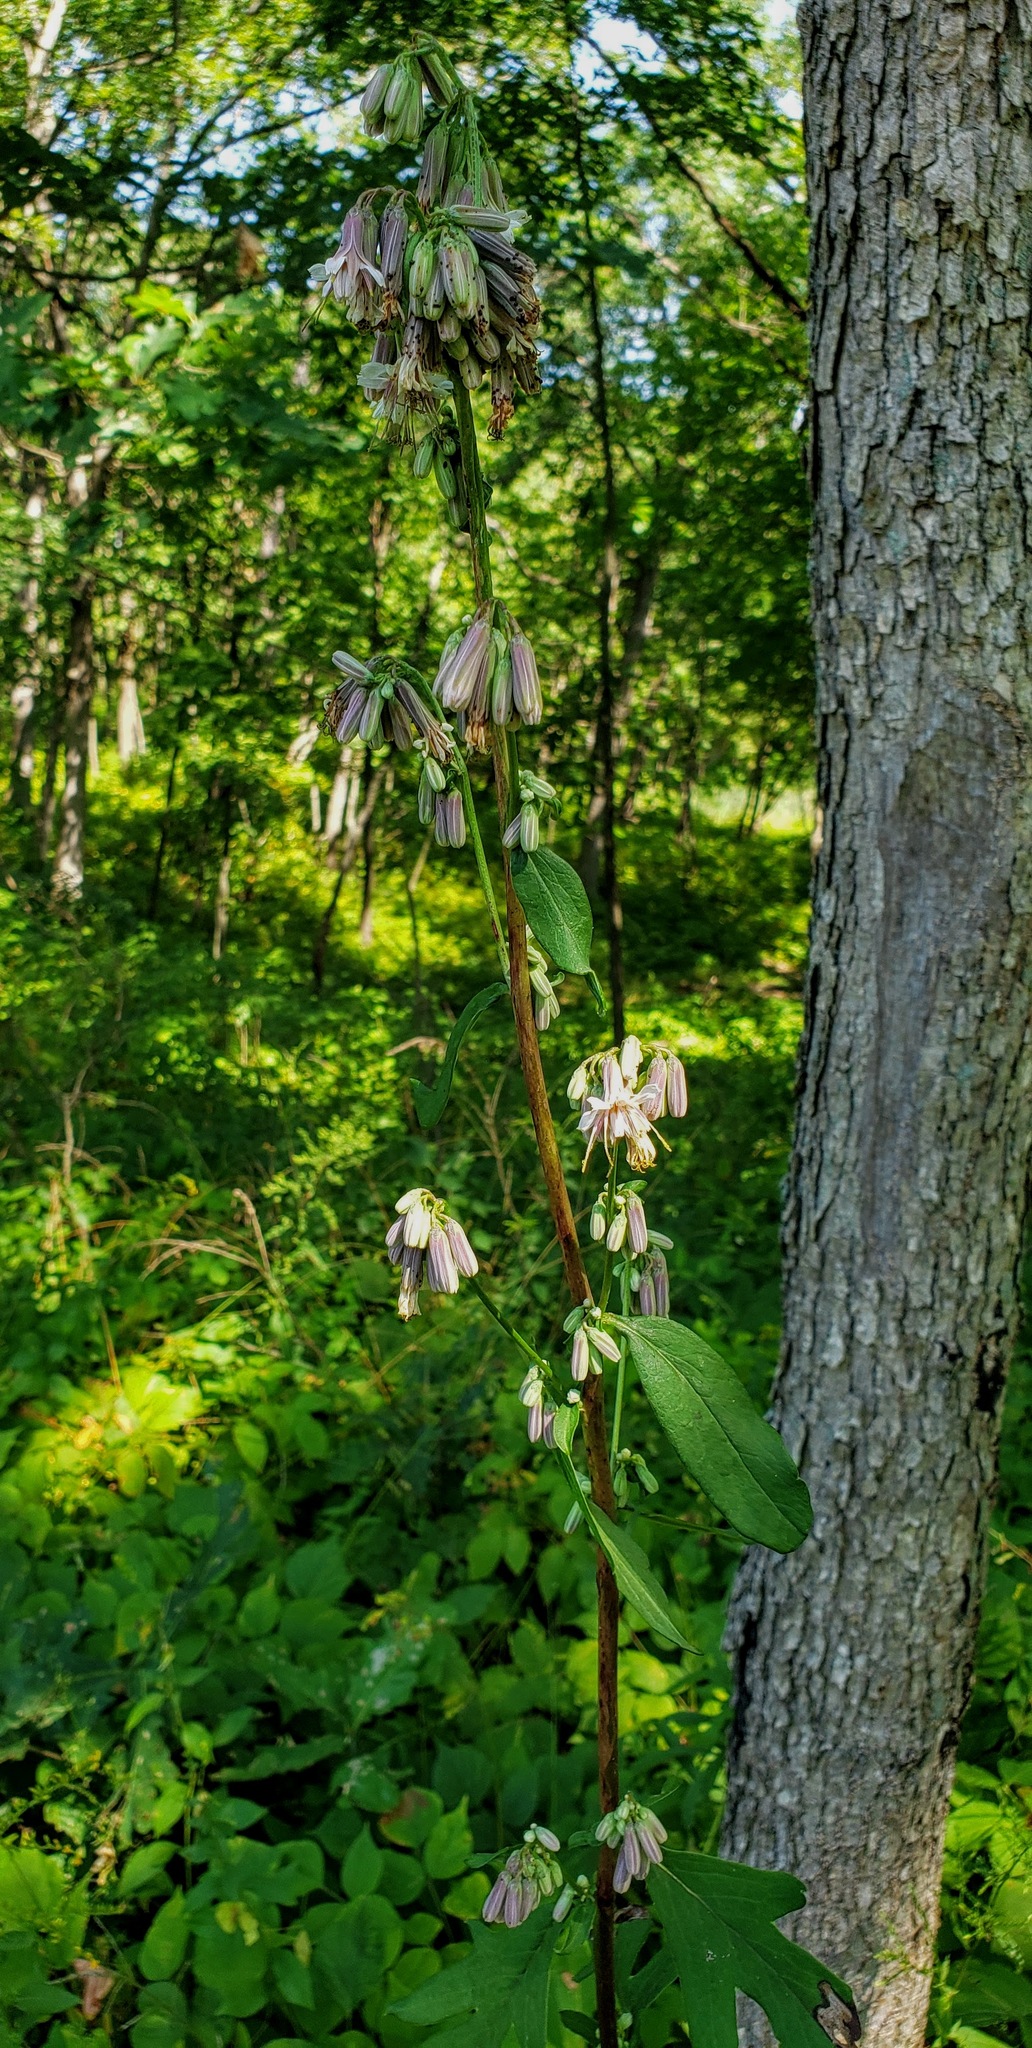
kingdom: Plantae
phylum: Tracheophyta
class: Magnoliopsida
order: Asterales
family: Asteraceae
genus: Nabalus
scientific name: Nabalus albus
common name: White rattlesnakeroot
